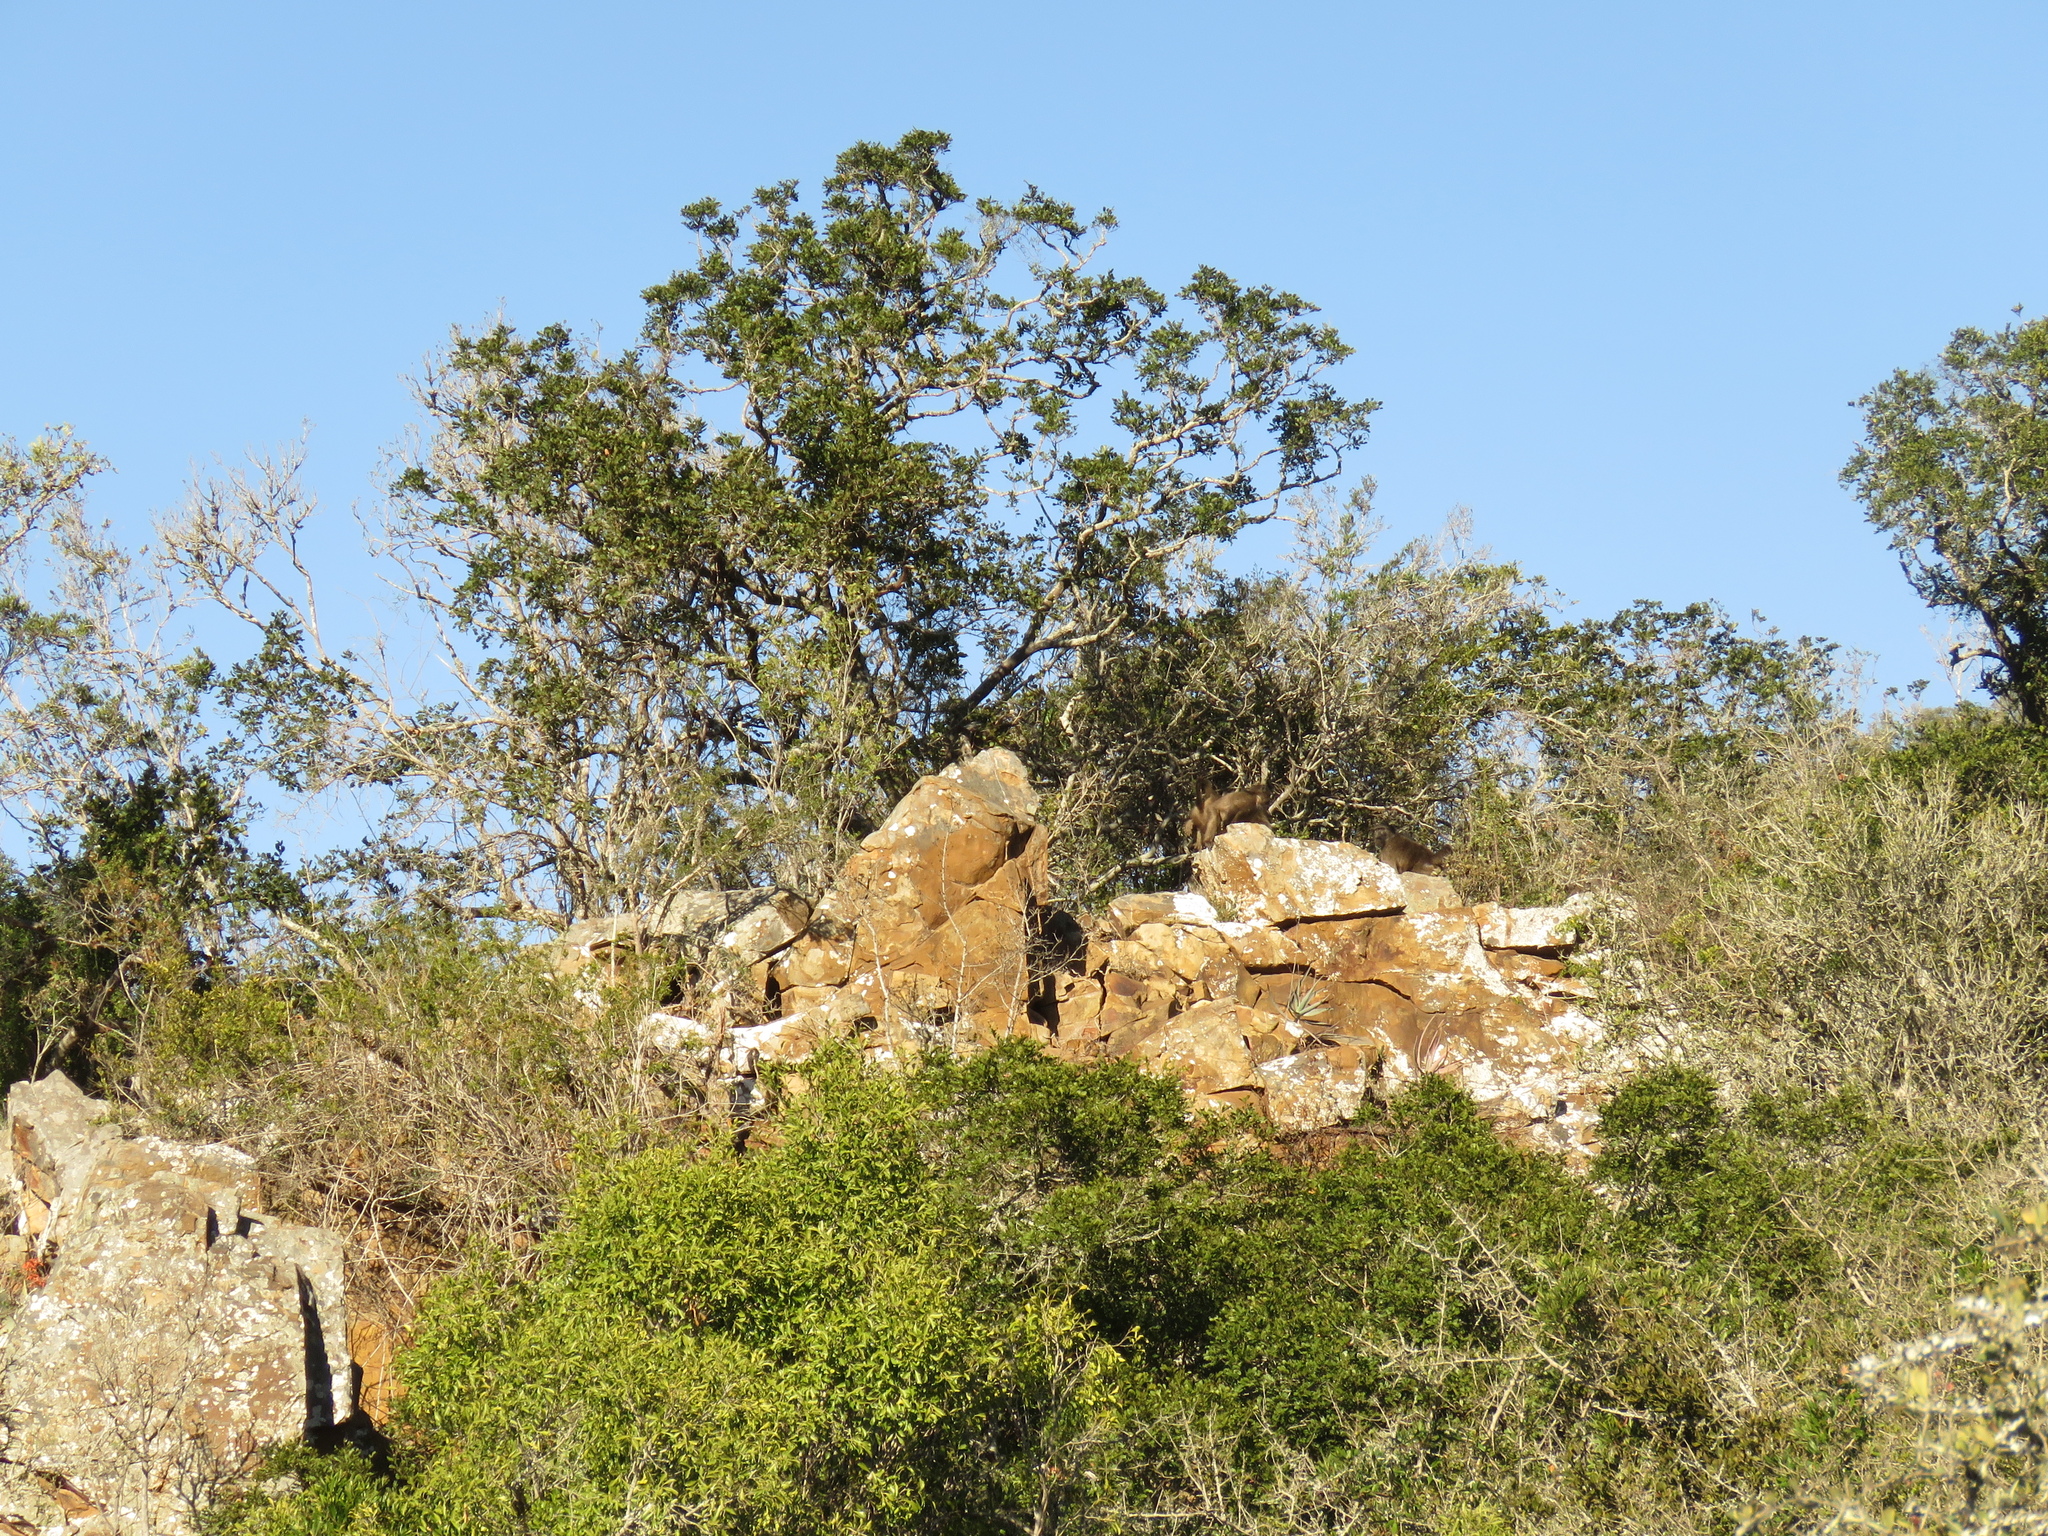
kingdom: Animalia
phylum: Chordata
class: Mammalia
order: Primates
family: Cercopithecidae
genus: Papio
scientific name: Papio ursinus
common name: Chacma baboon
